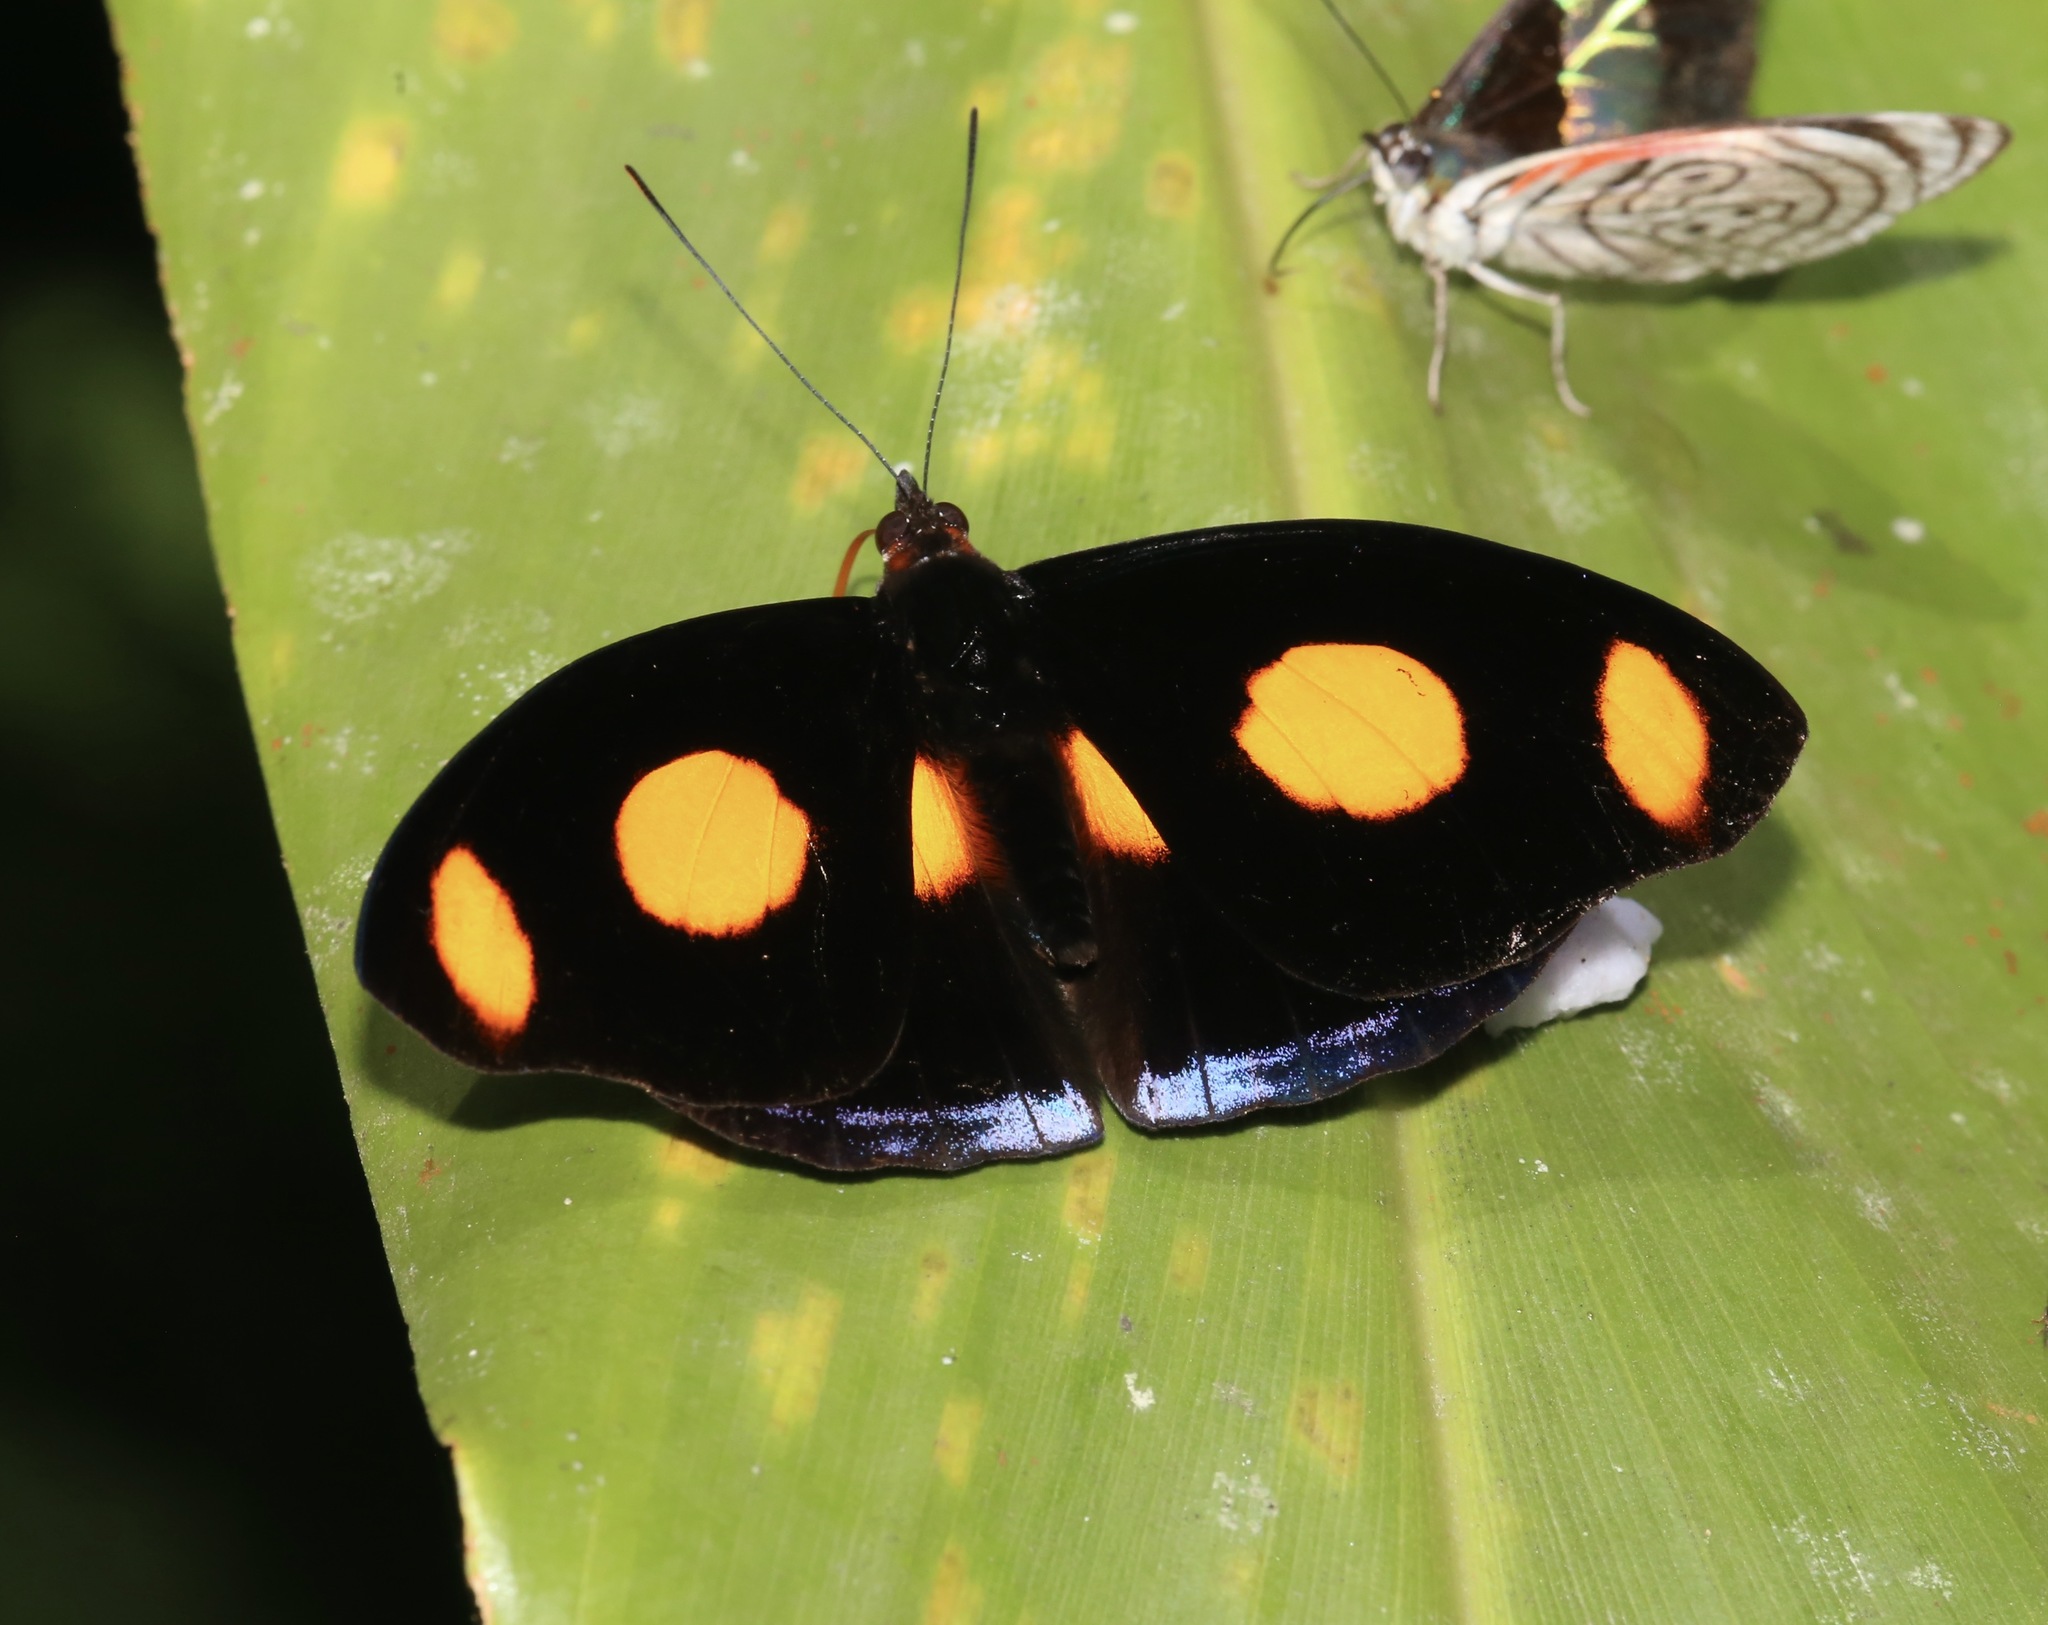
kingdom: Animalia
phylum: Arthropoda
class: Insecta
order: Lepidoptera
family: Nymphalidae
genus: Catonephele
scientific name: Catonephele numilia
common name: Blue-frosted banner
